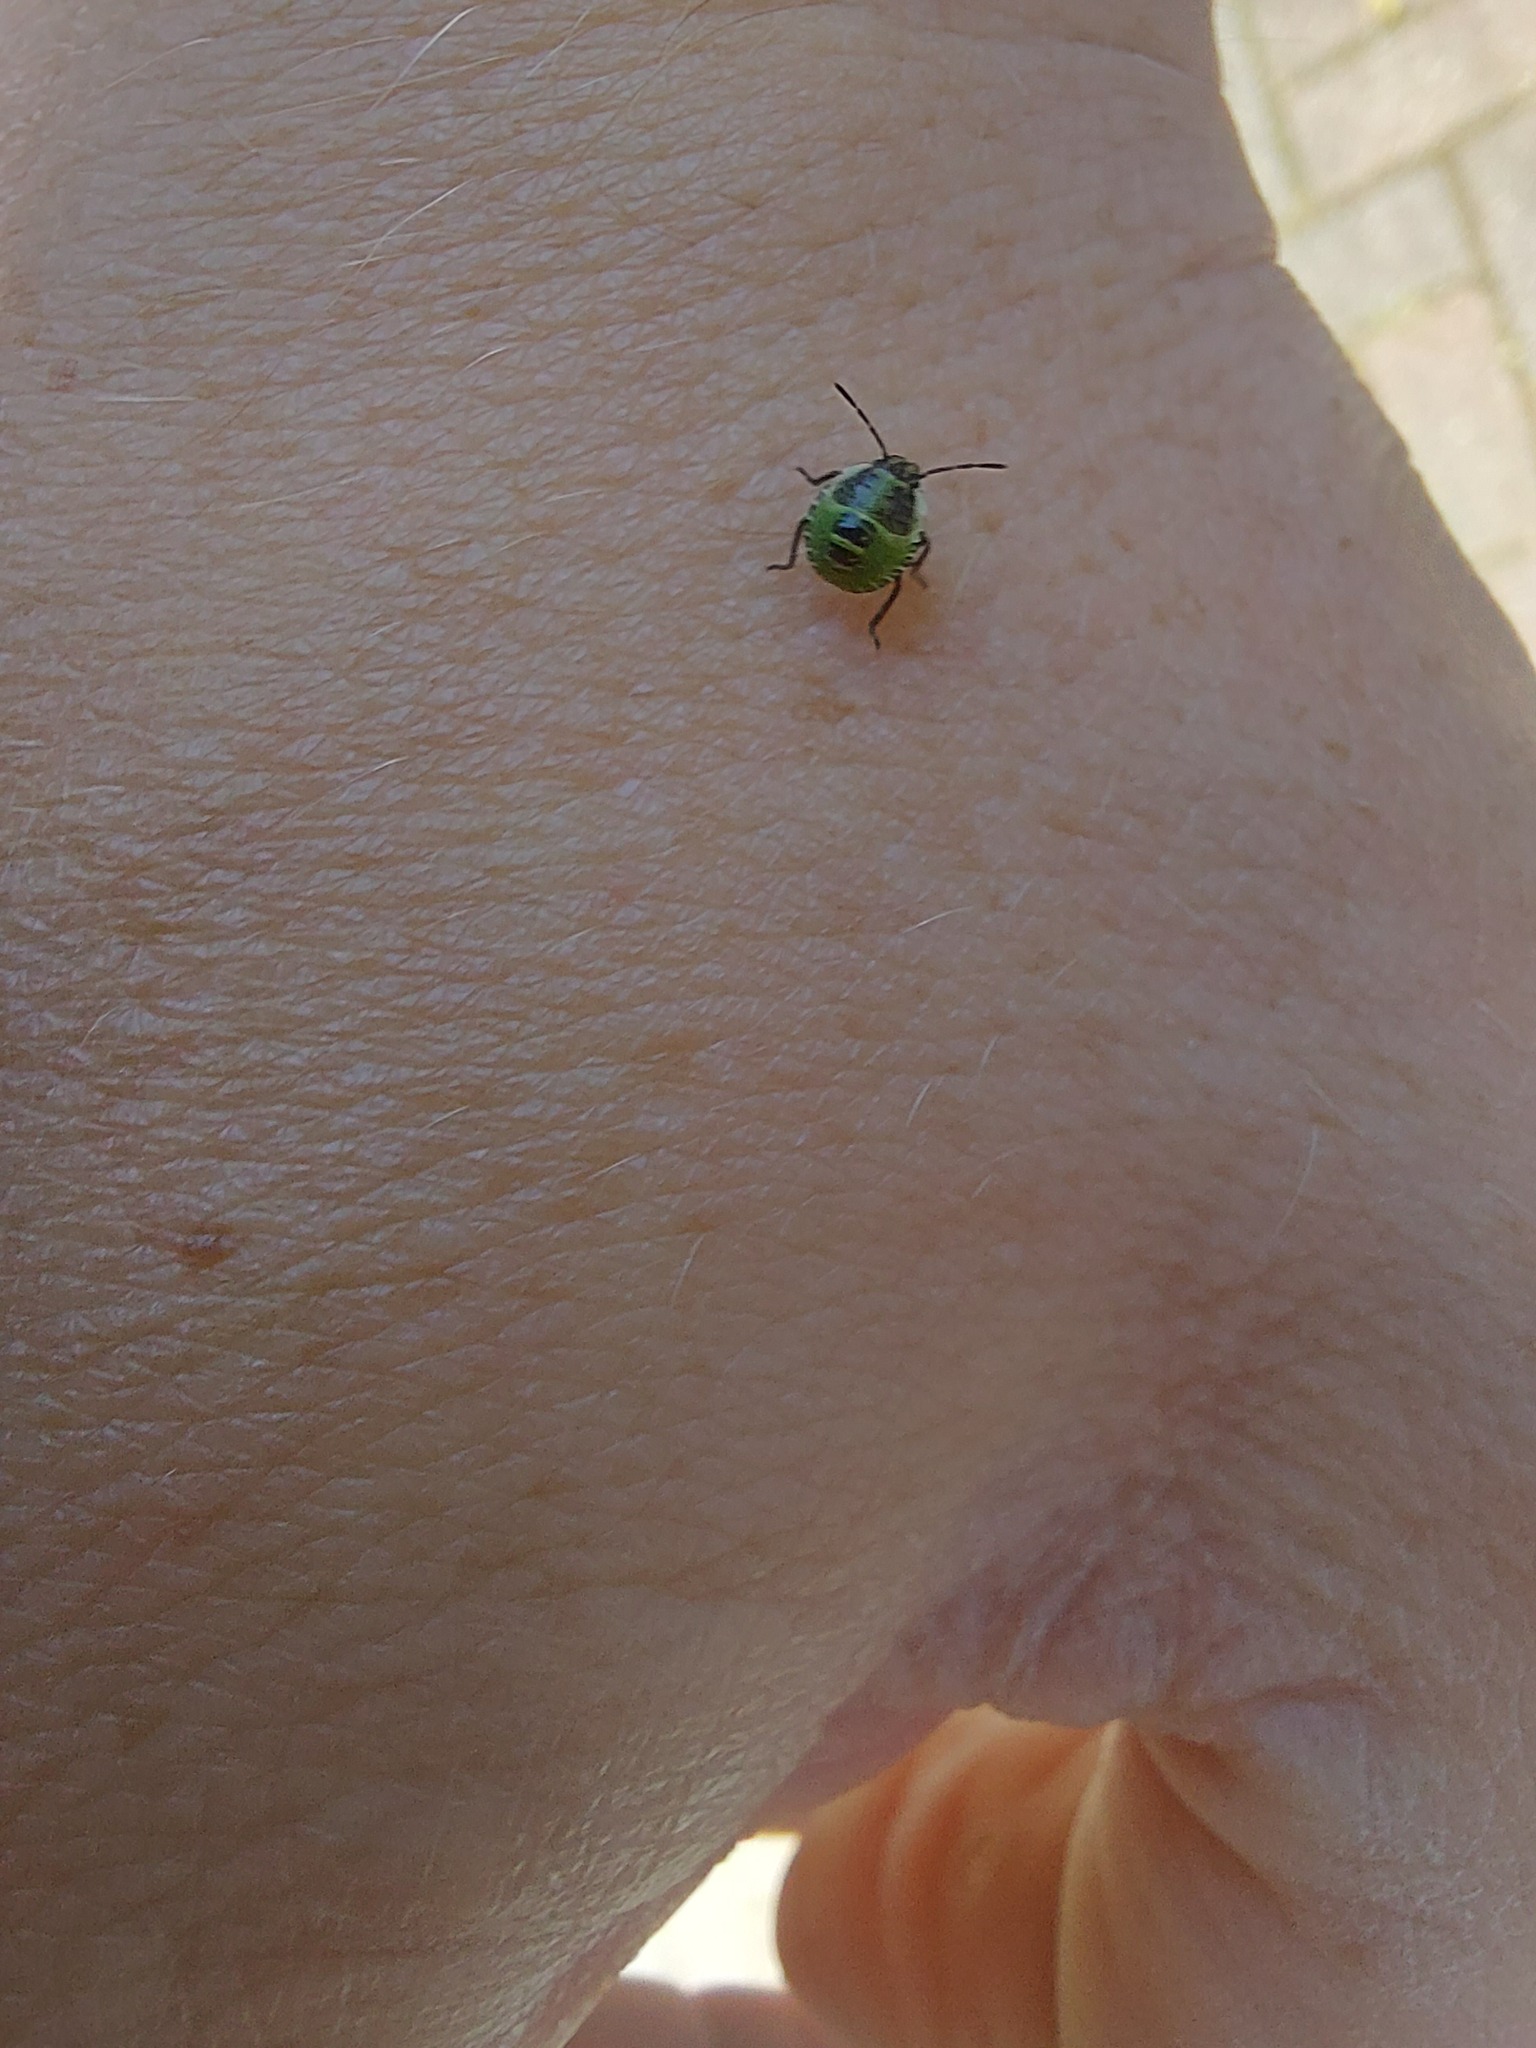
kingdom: Animalia
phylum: Arthropoda
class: Insecta
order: Hemiptera
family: Pentatomidae
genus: Palomena
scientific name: Palomena prasina
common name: Green shieldbug
